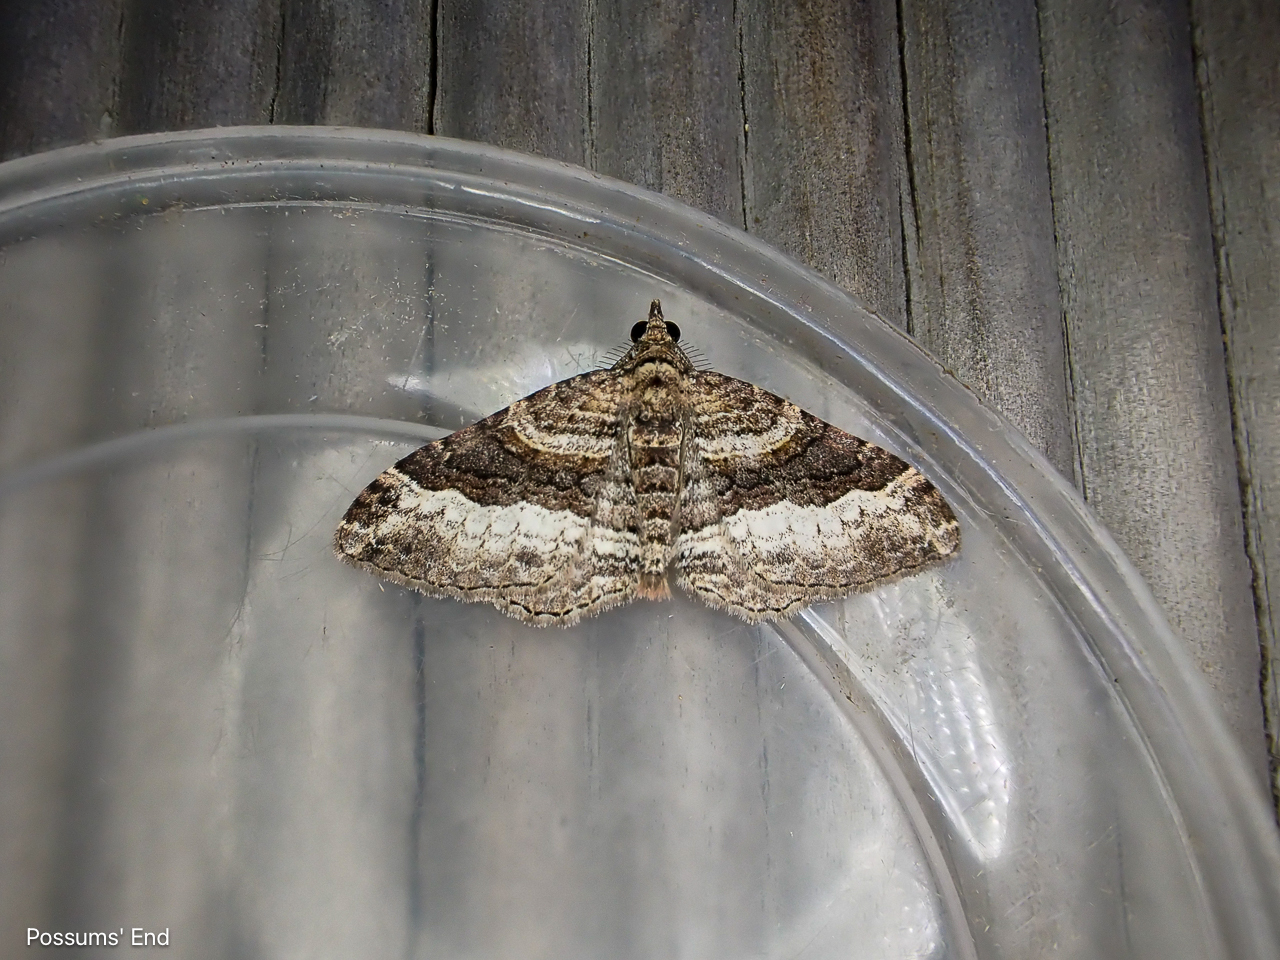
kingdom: Animalia
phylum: Arthropoda
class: Insecta
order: Lepidoptera
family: Geometridae
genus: Epyaxa
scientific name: Epyaxa lucidata
